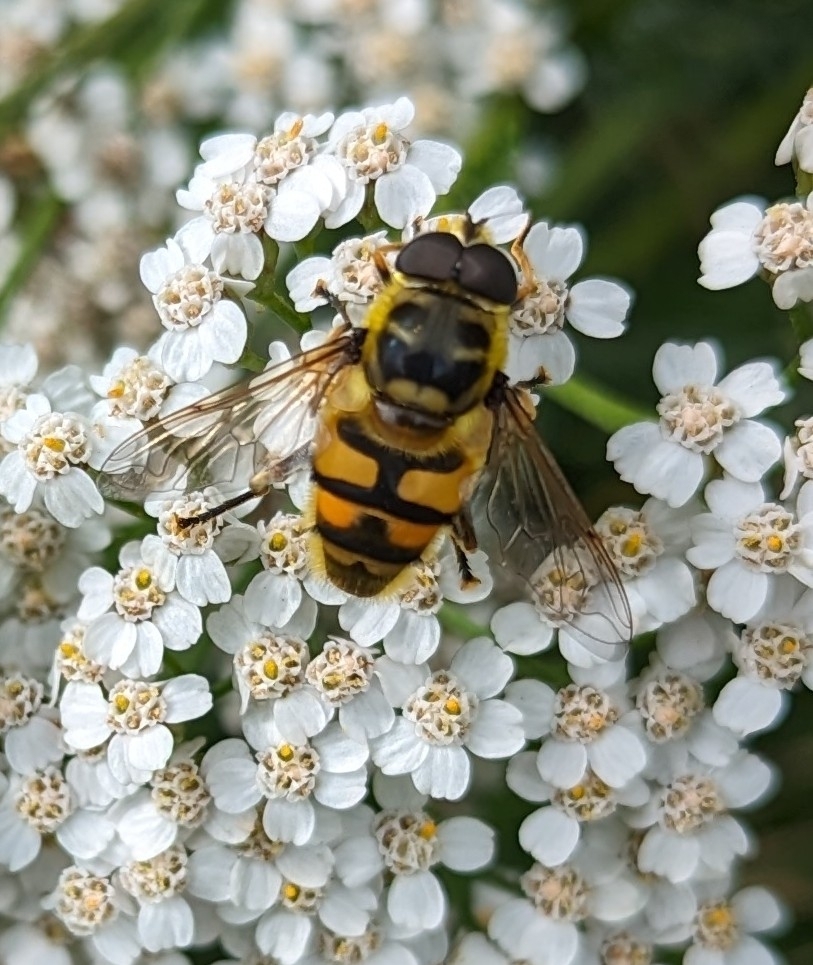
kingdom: Animalia
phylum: Arthropoda
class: Insecta
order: Diptera
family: Syrphidae
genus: Myathropa
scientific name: Myathropa florea
